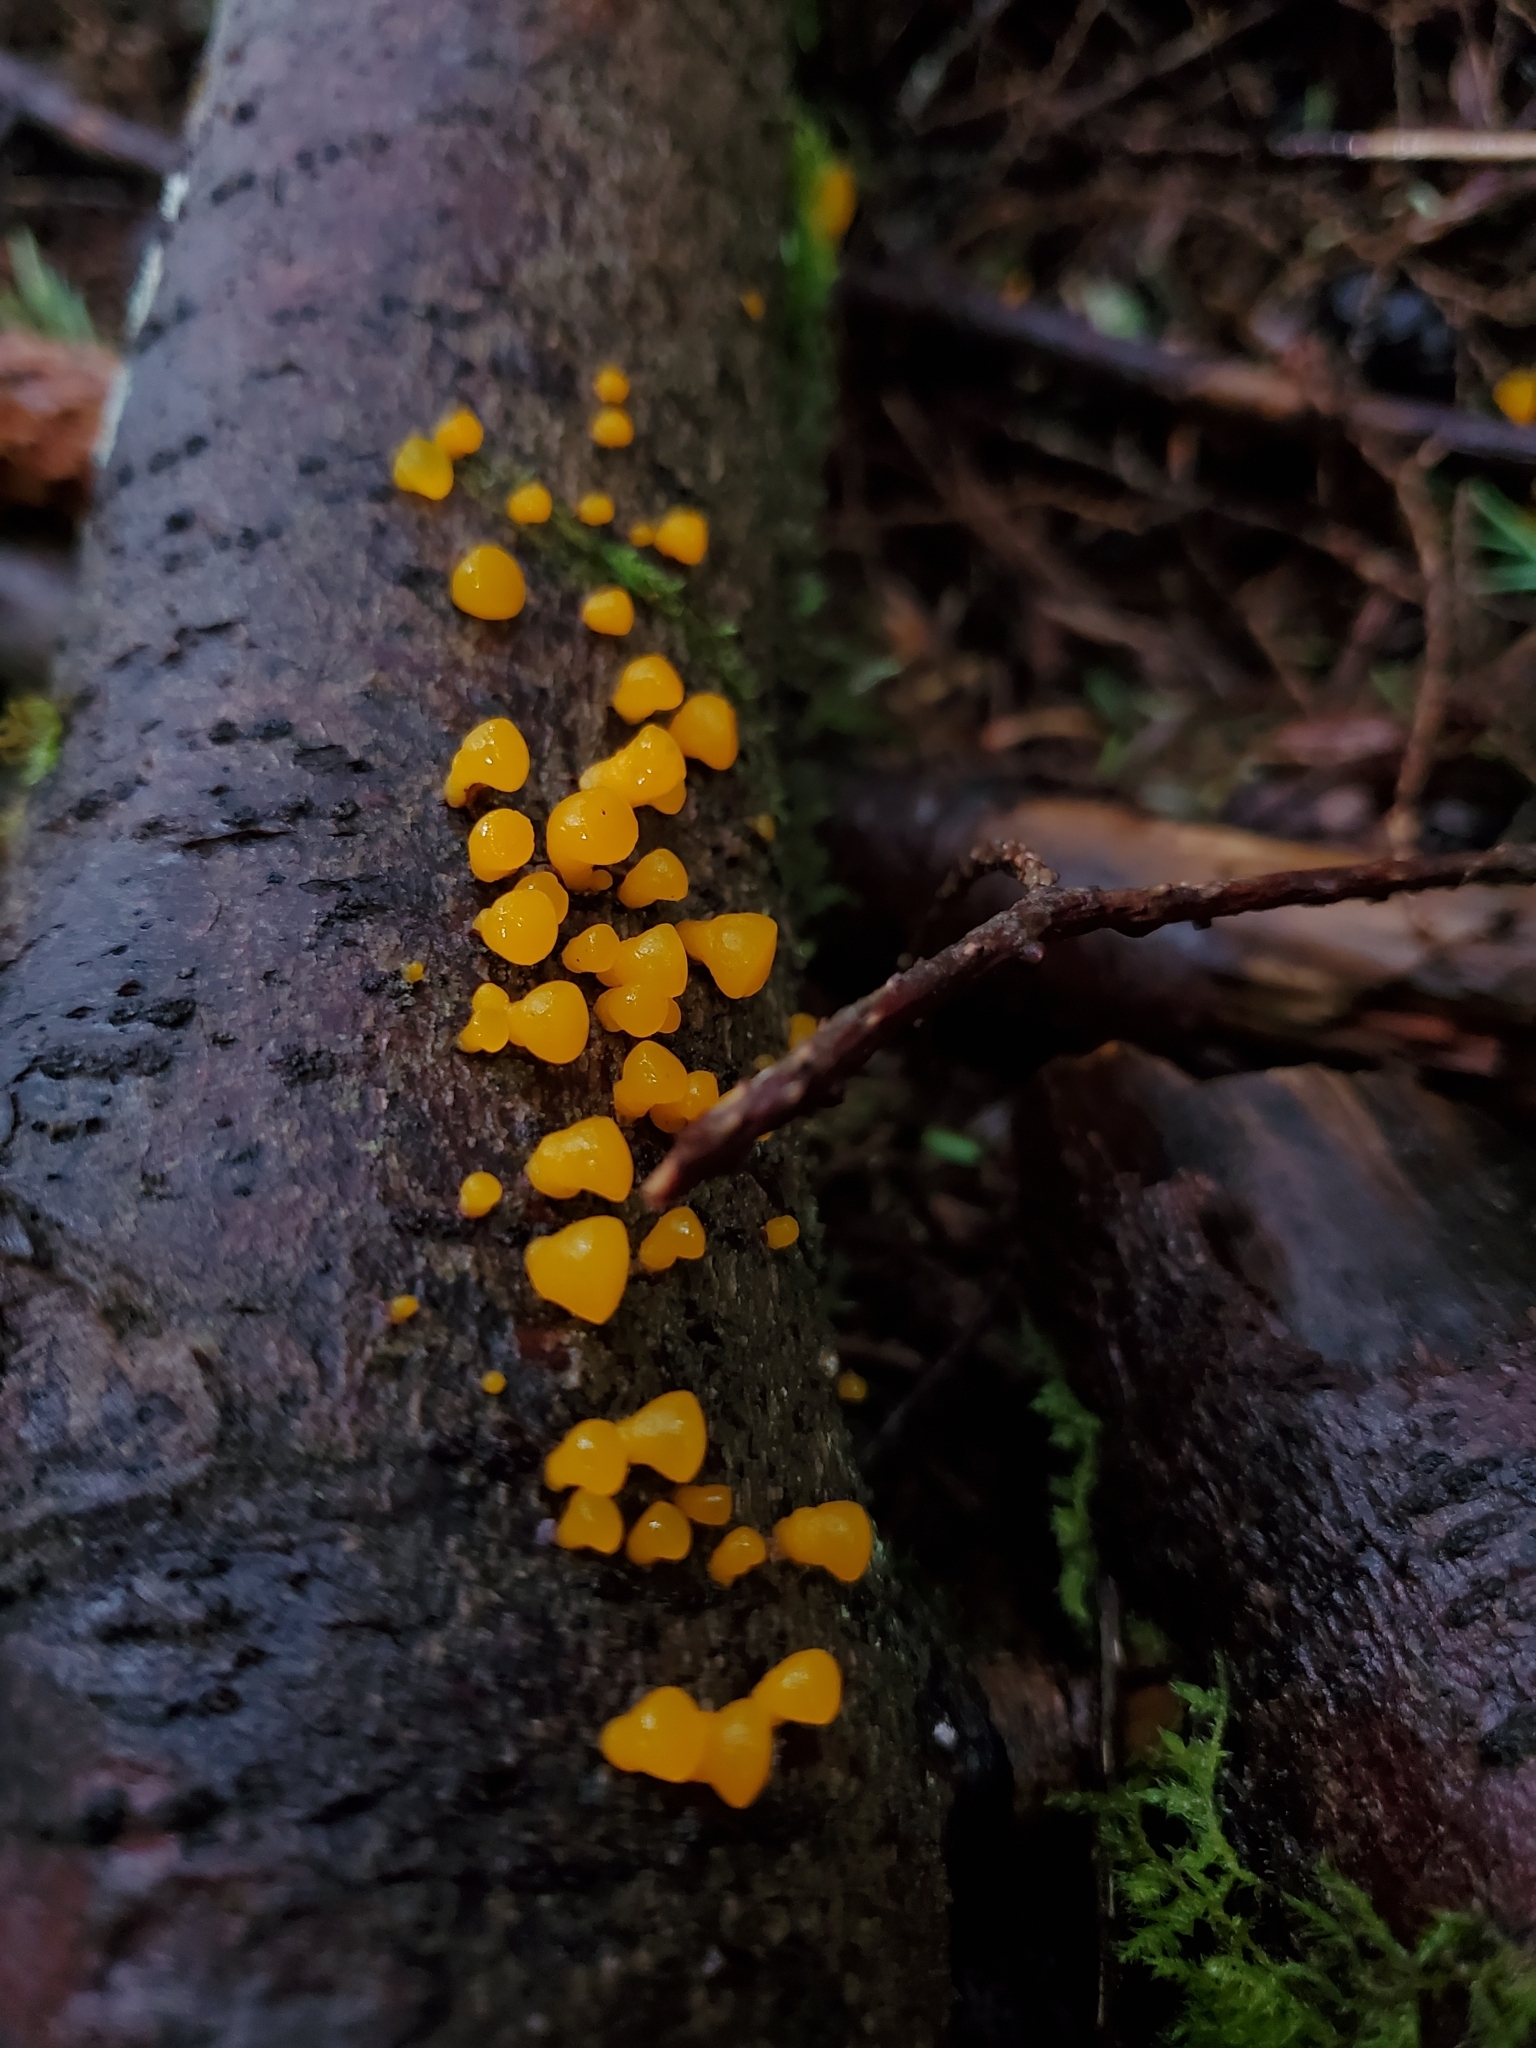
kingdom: Fungi
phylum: Basidiomycota
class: Dacrymycetes
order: Dacrymycetales
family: Dacrymycetaceae
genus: Dacrymyces
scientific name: Dacrymyces capitatus
